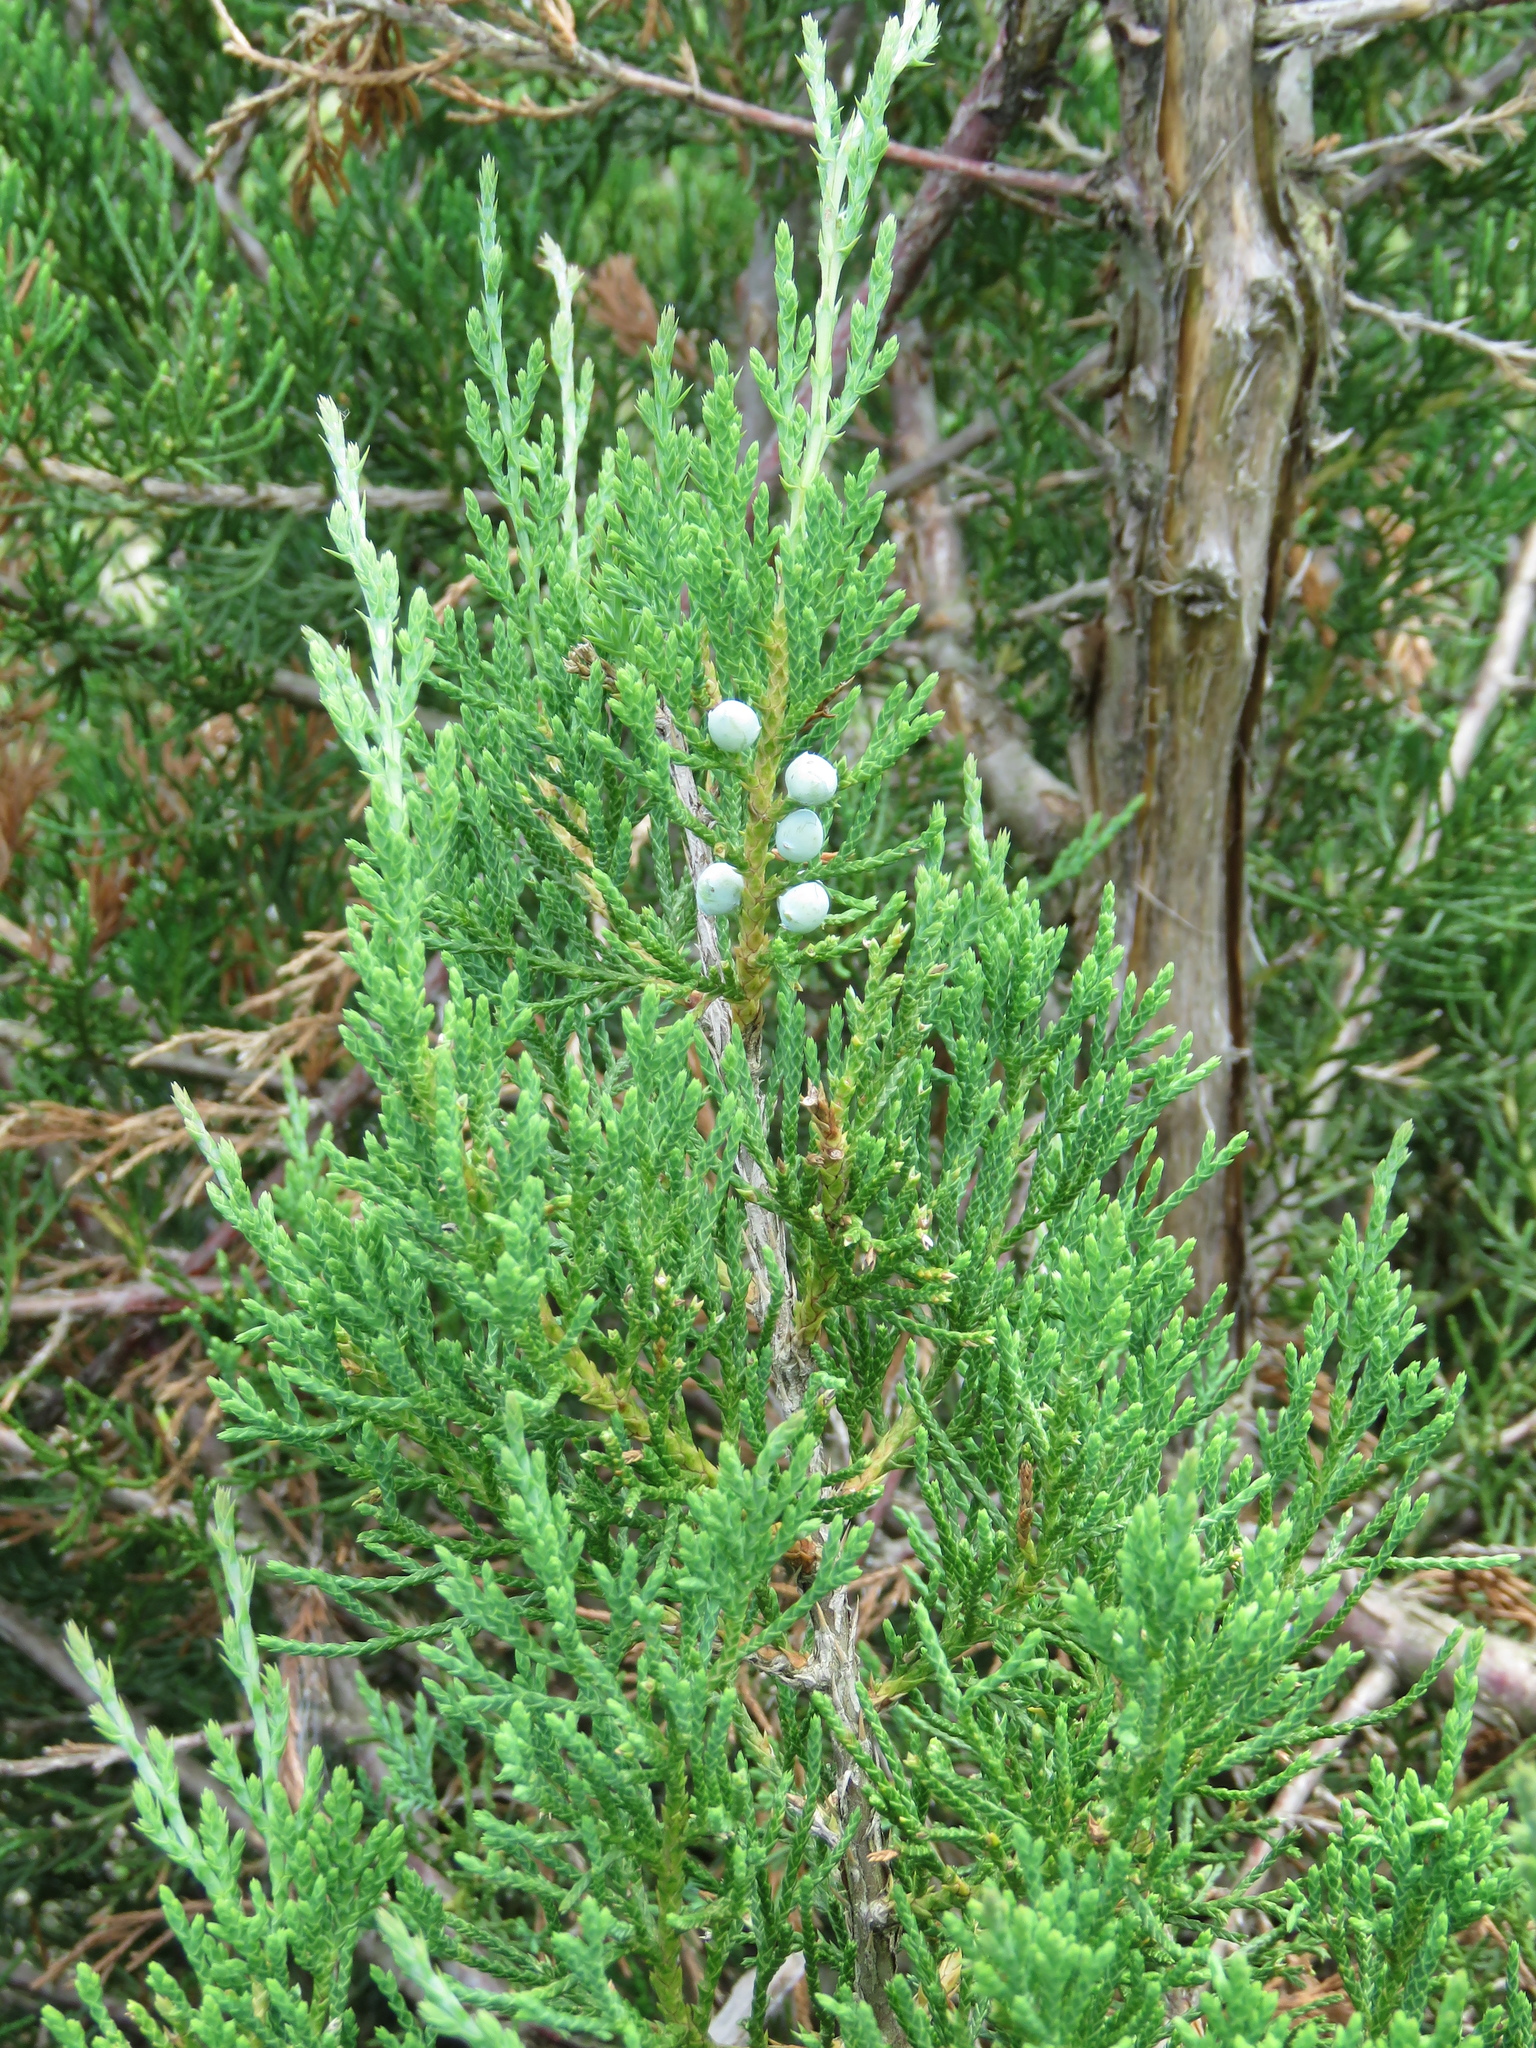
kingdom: Plantae
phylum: Tracheophyta
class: Pinopsida
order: Pinales
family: Cupressaceae
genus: Juniperus
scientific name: Juniperus virginiana
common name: Red juniper
